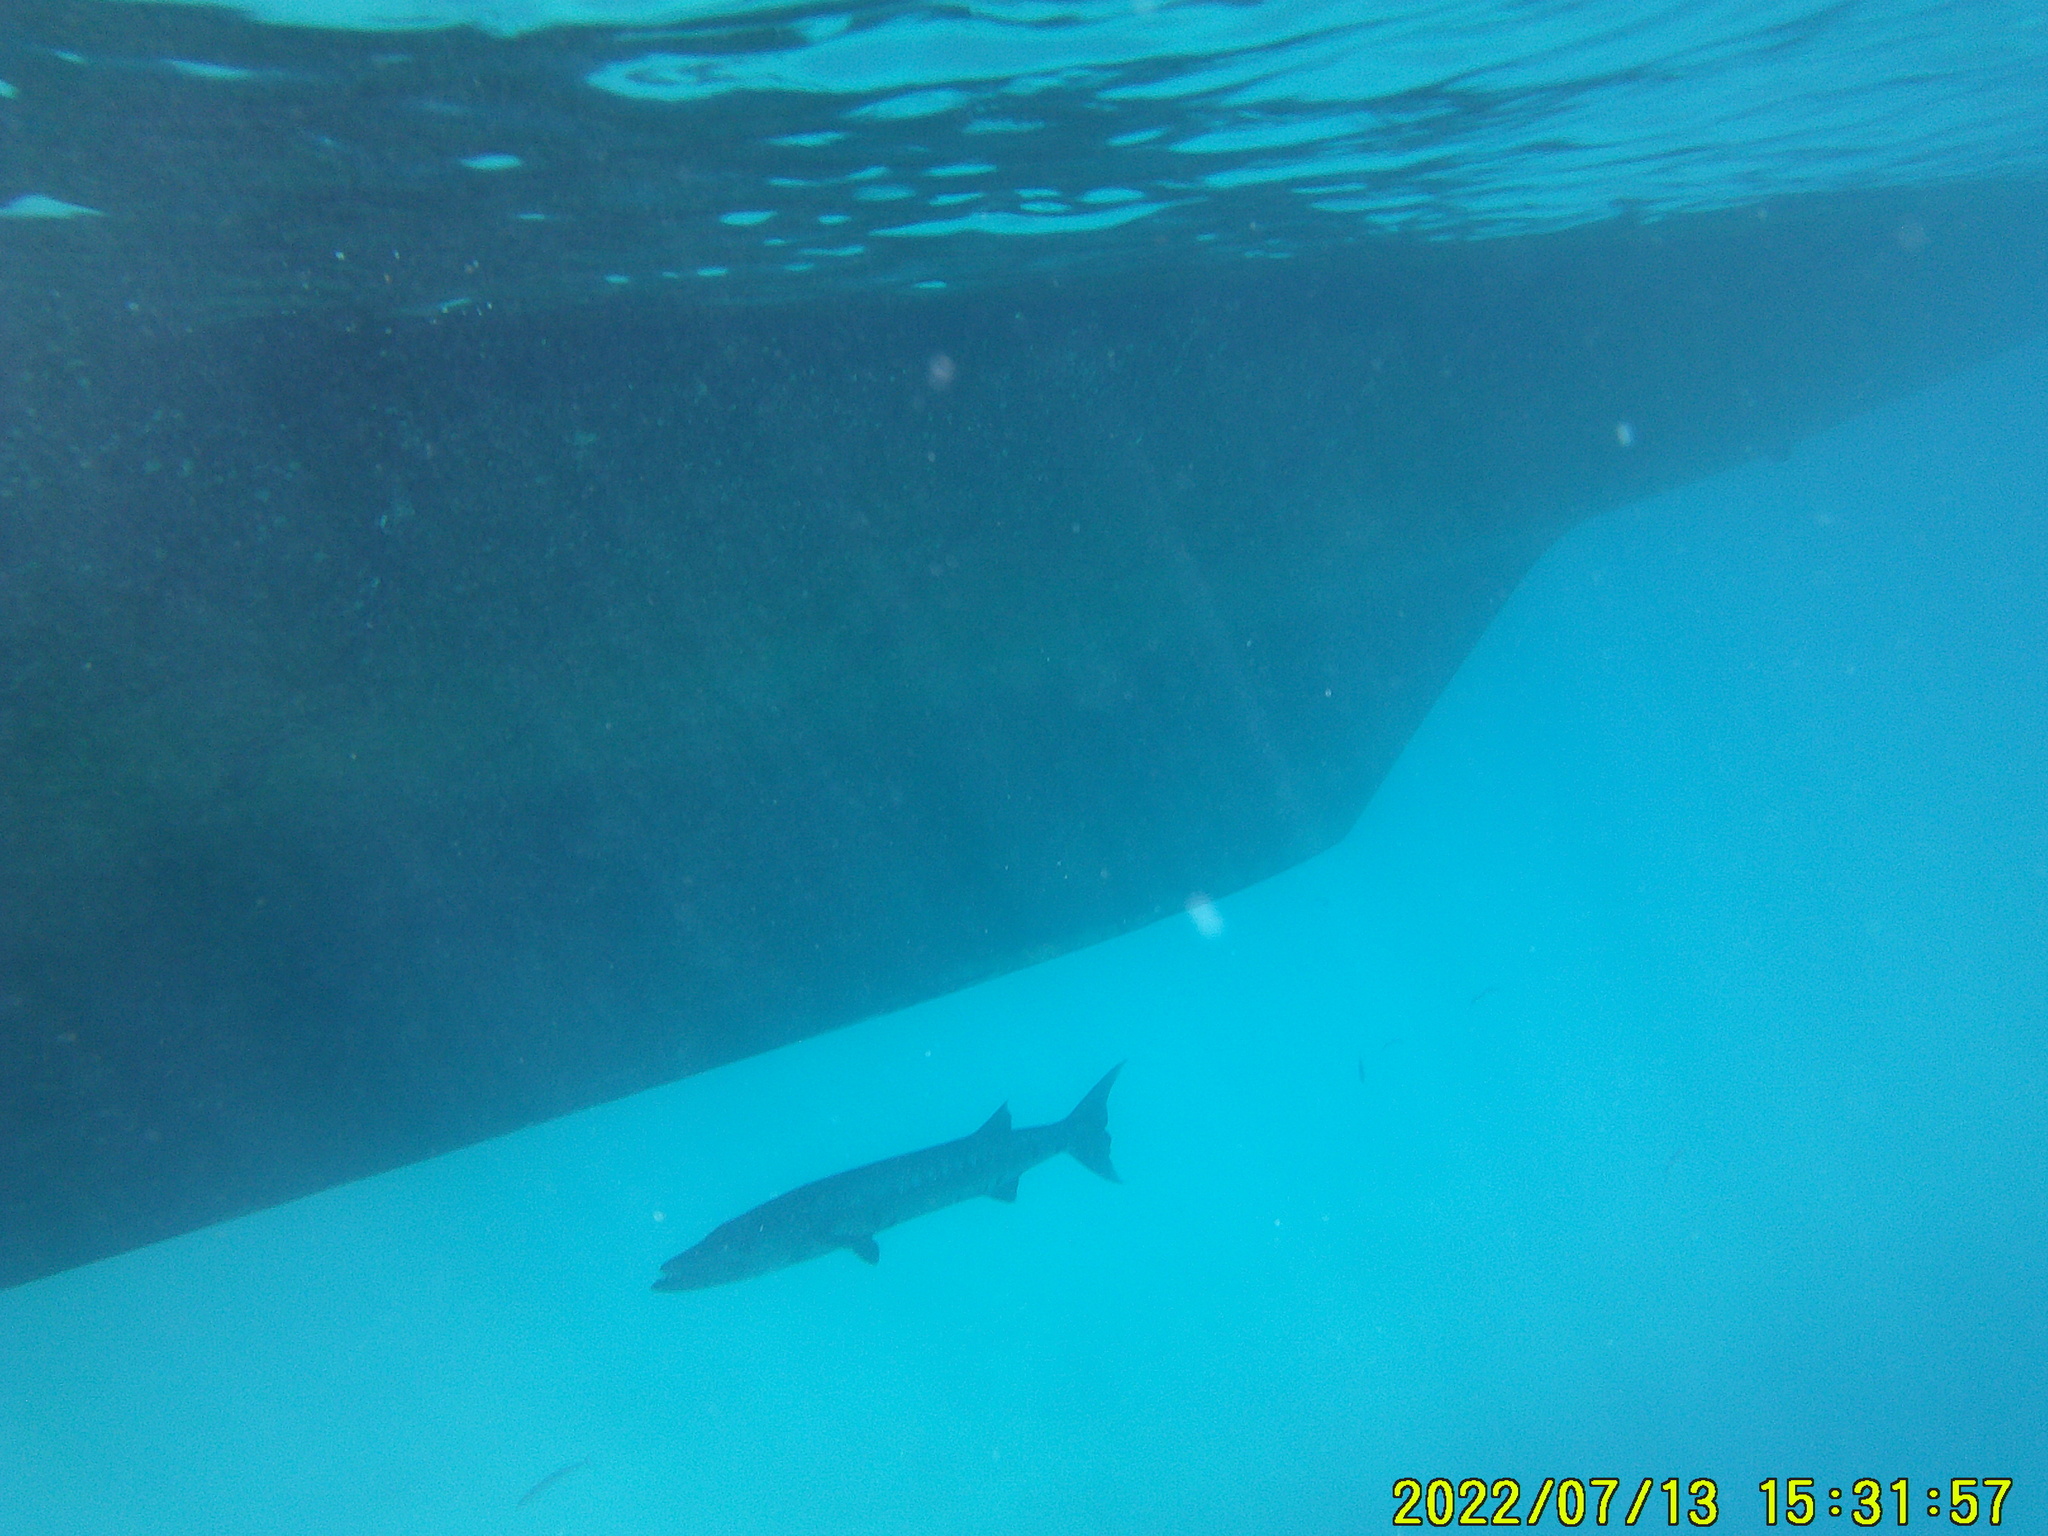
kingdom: Animalia
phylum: Chordata
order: Perciformes
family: Sphyraenidae
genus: Sphyraena
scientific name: Sphyraena barracuda
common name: Great barracuda
